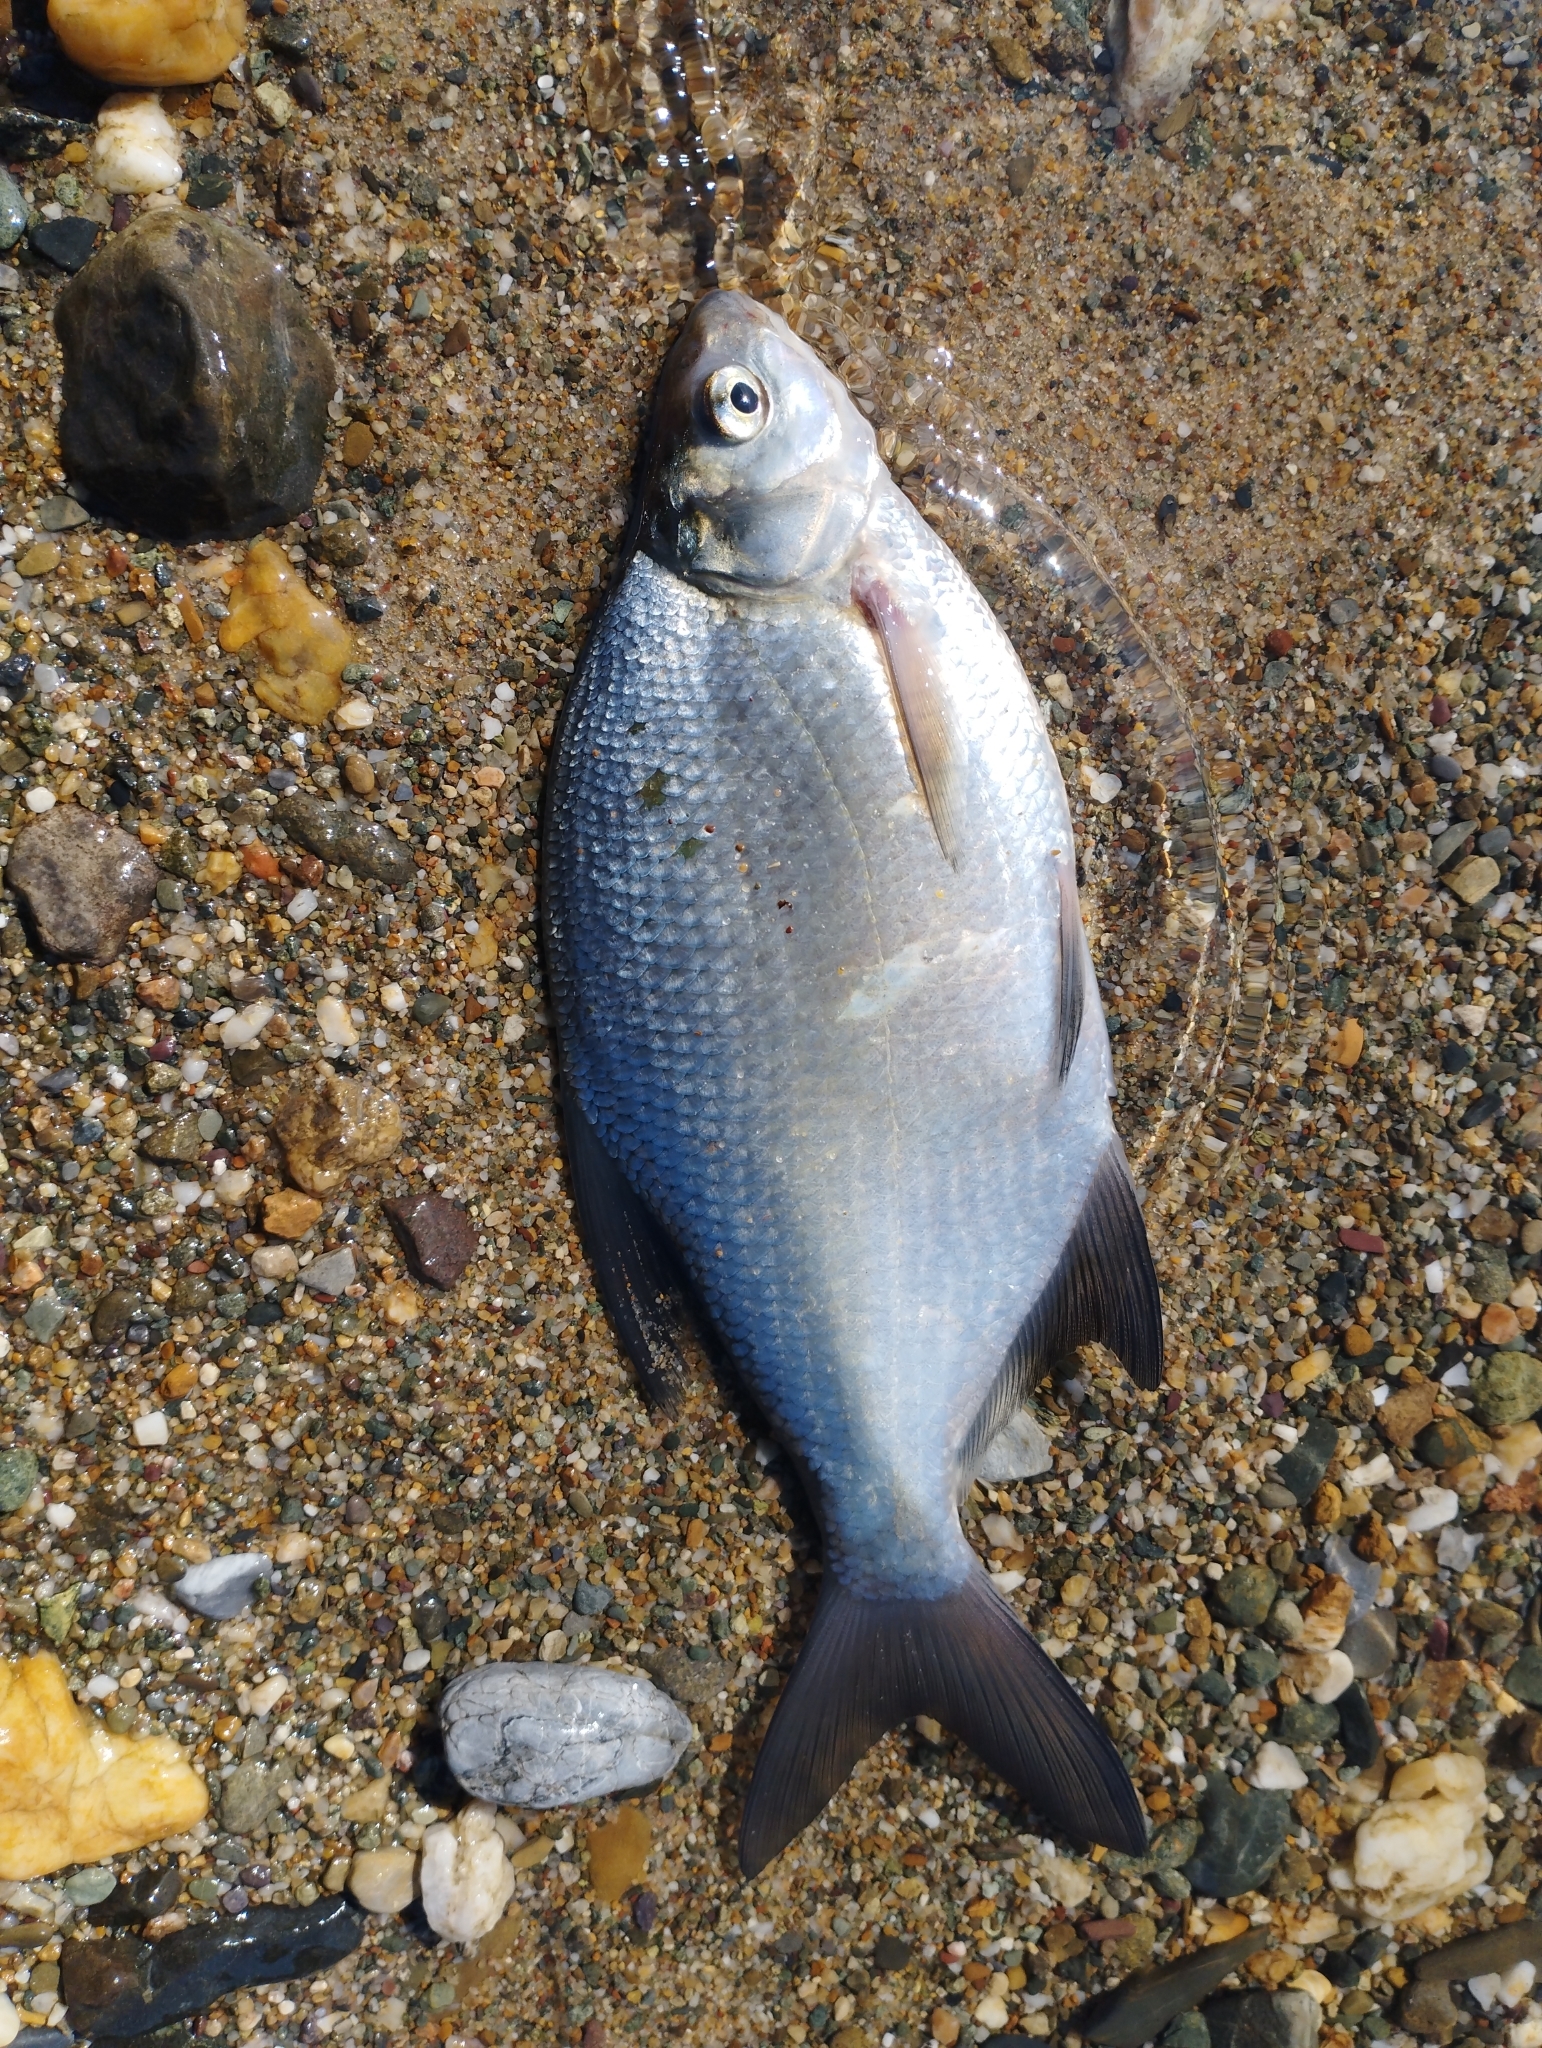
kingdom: Animalia
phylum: Chordata
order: Cypriniformes
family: Cyprinidae
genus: Abramis
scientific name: Abramis brama
